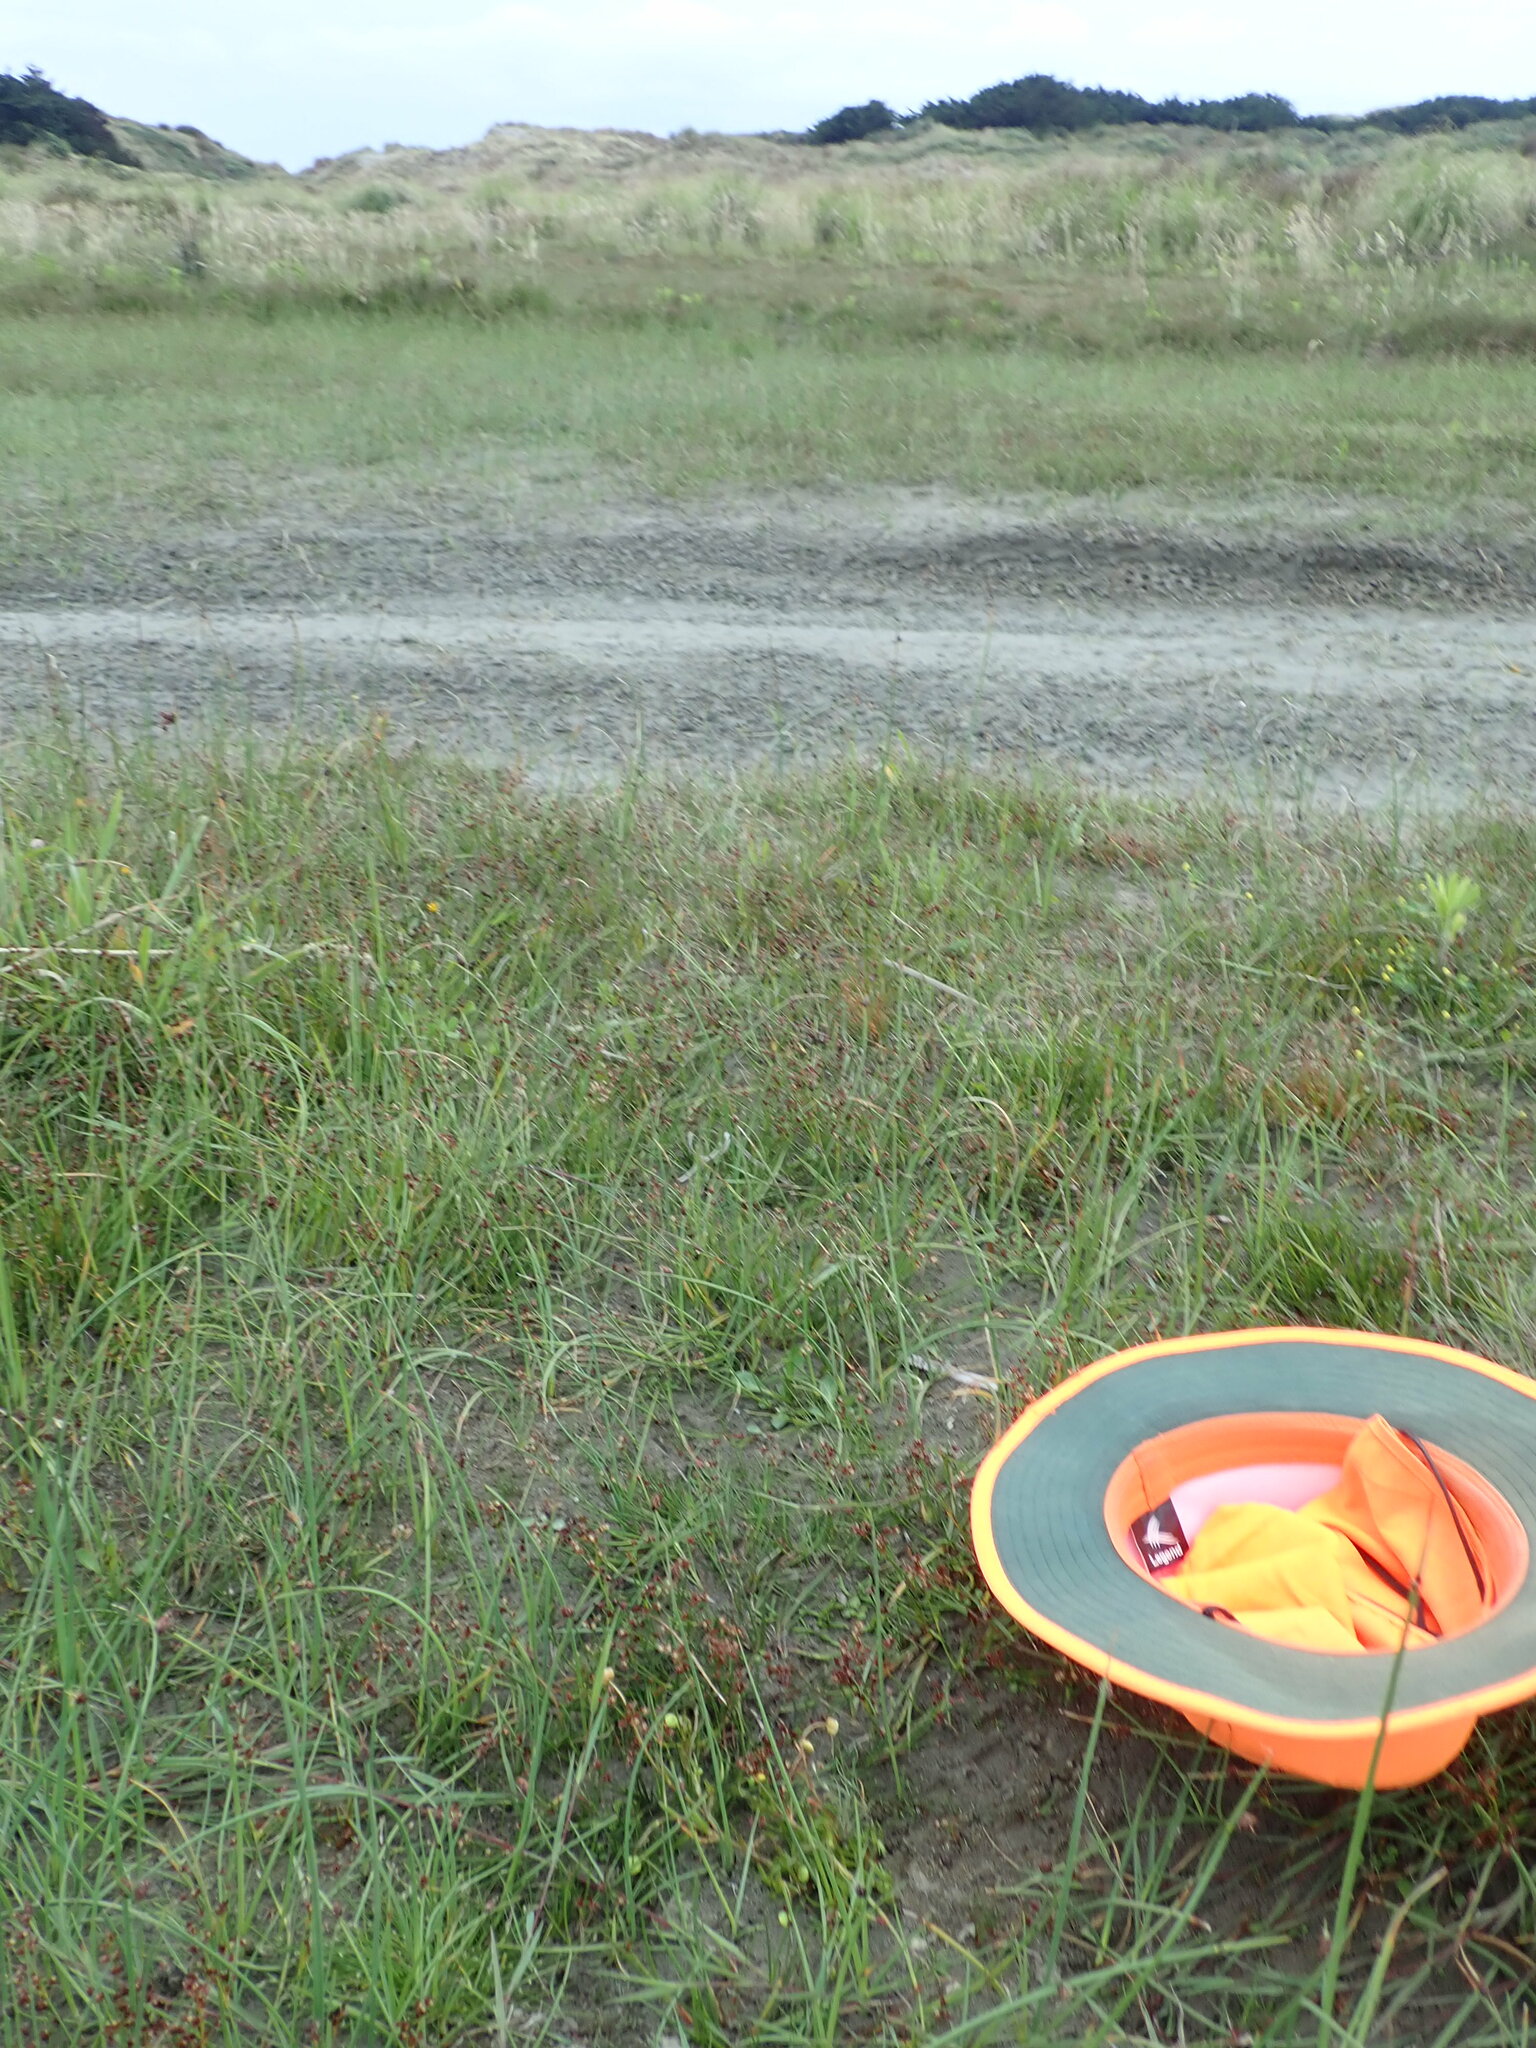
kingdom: Plantae
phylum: Tracheophyta
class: Liliopsida
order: Poales
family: Juncaceae
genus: Juncus
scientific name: Juncus bufonius
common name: Toad rush
